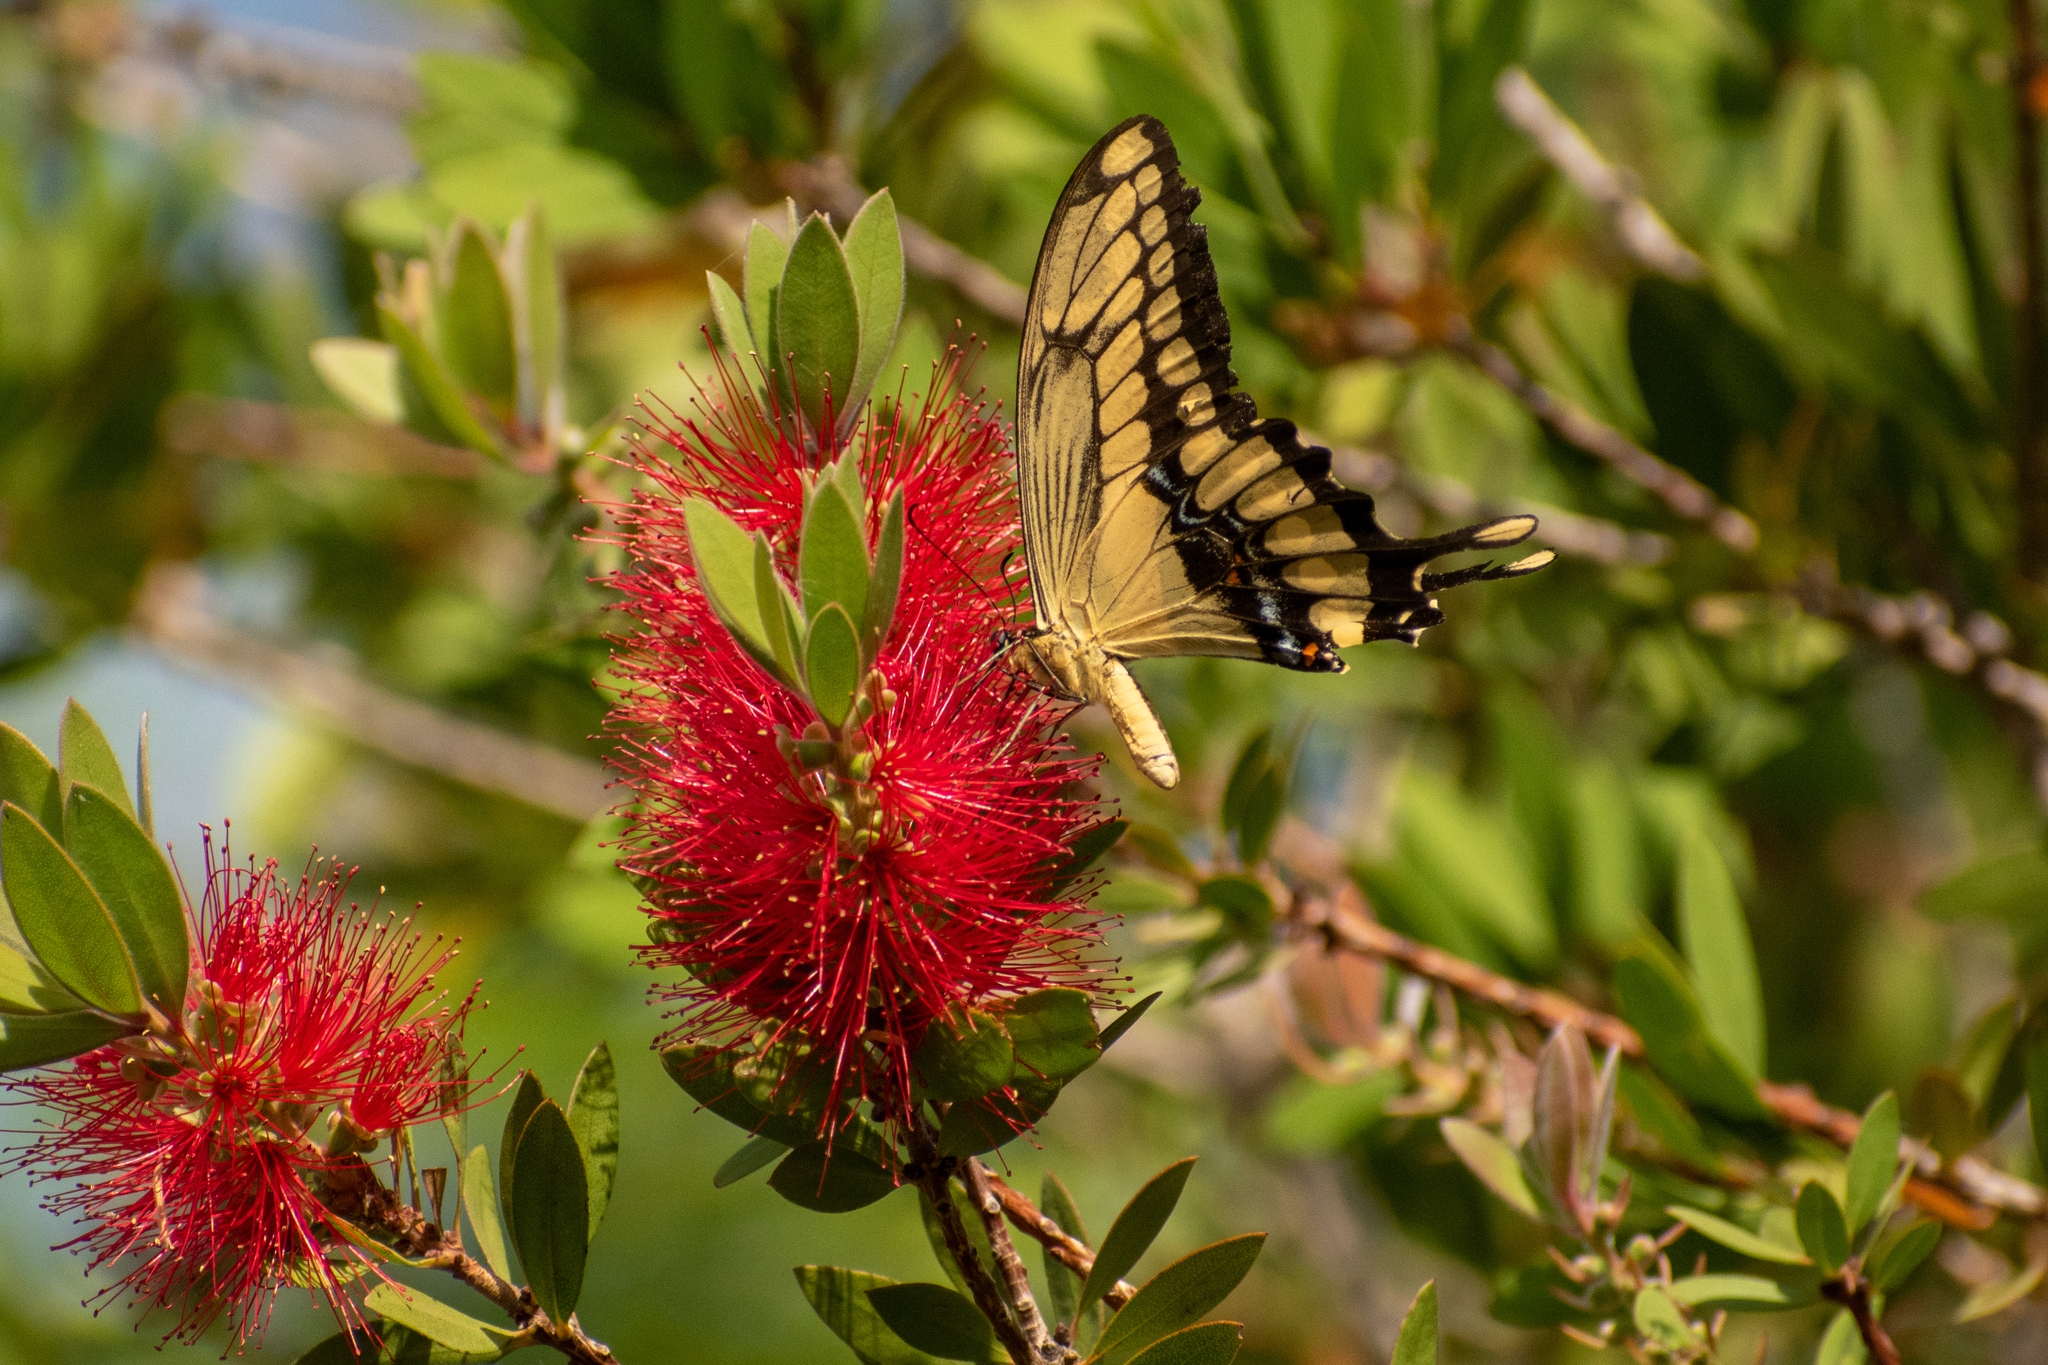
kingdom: Animalia
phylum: Arthropoda
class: Insecta
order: Lepidoptera
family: Papilionidae
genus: Papilio
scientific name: Papilio thoas
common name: King swallowtail
